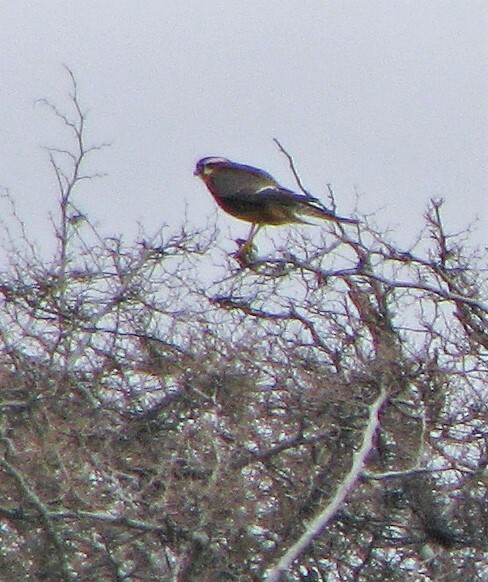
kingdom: Animalia
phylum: Chordata
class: Aves
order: Falconiformes
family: Falconidae
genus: Falco
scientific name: Falco femoralis
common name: Aplomado falcon
